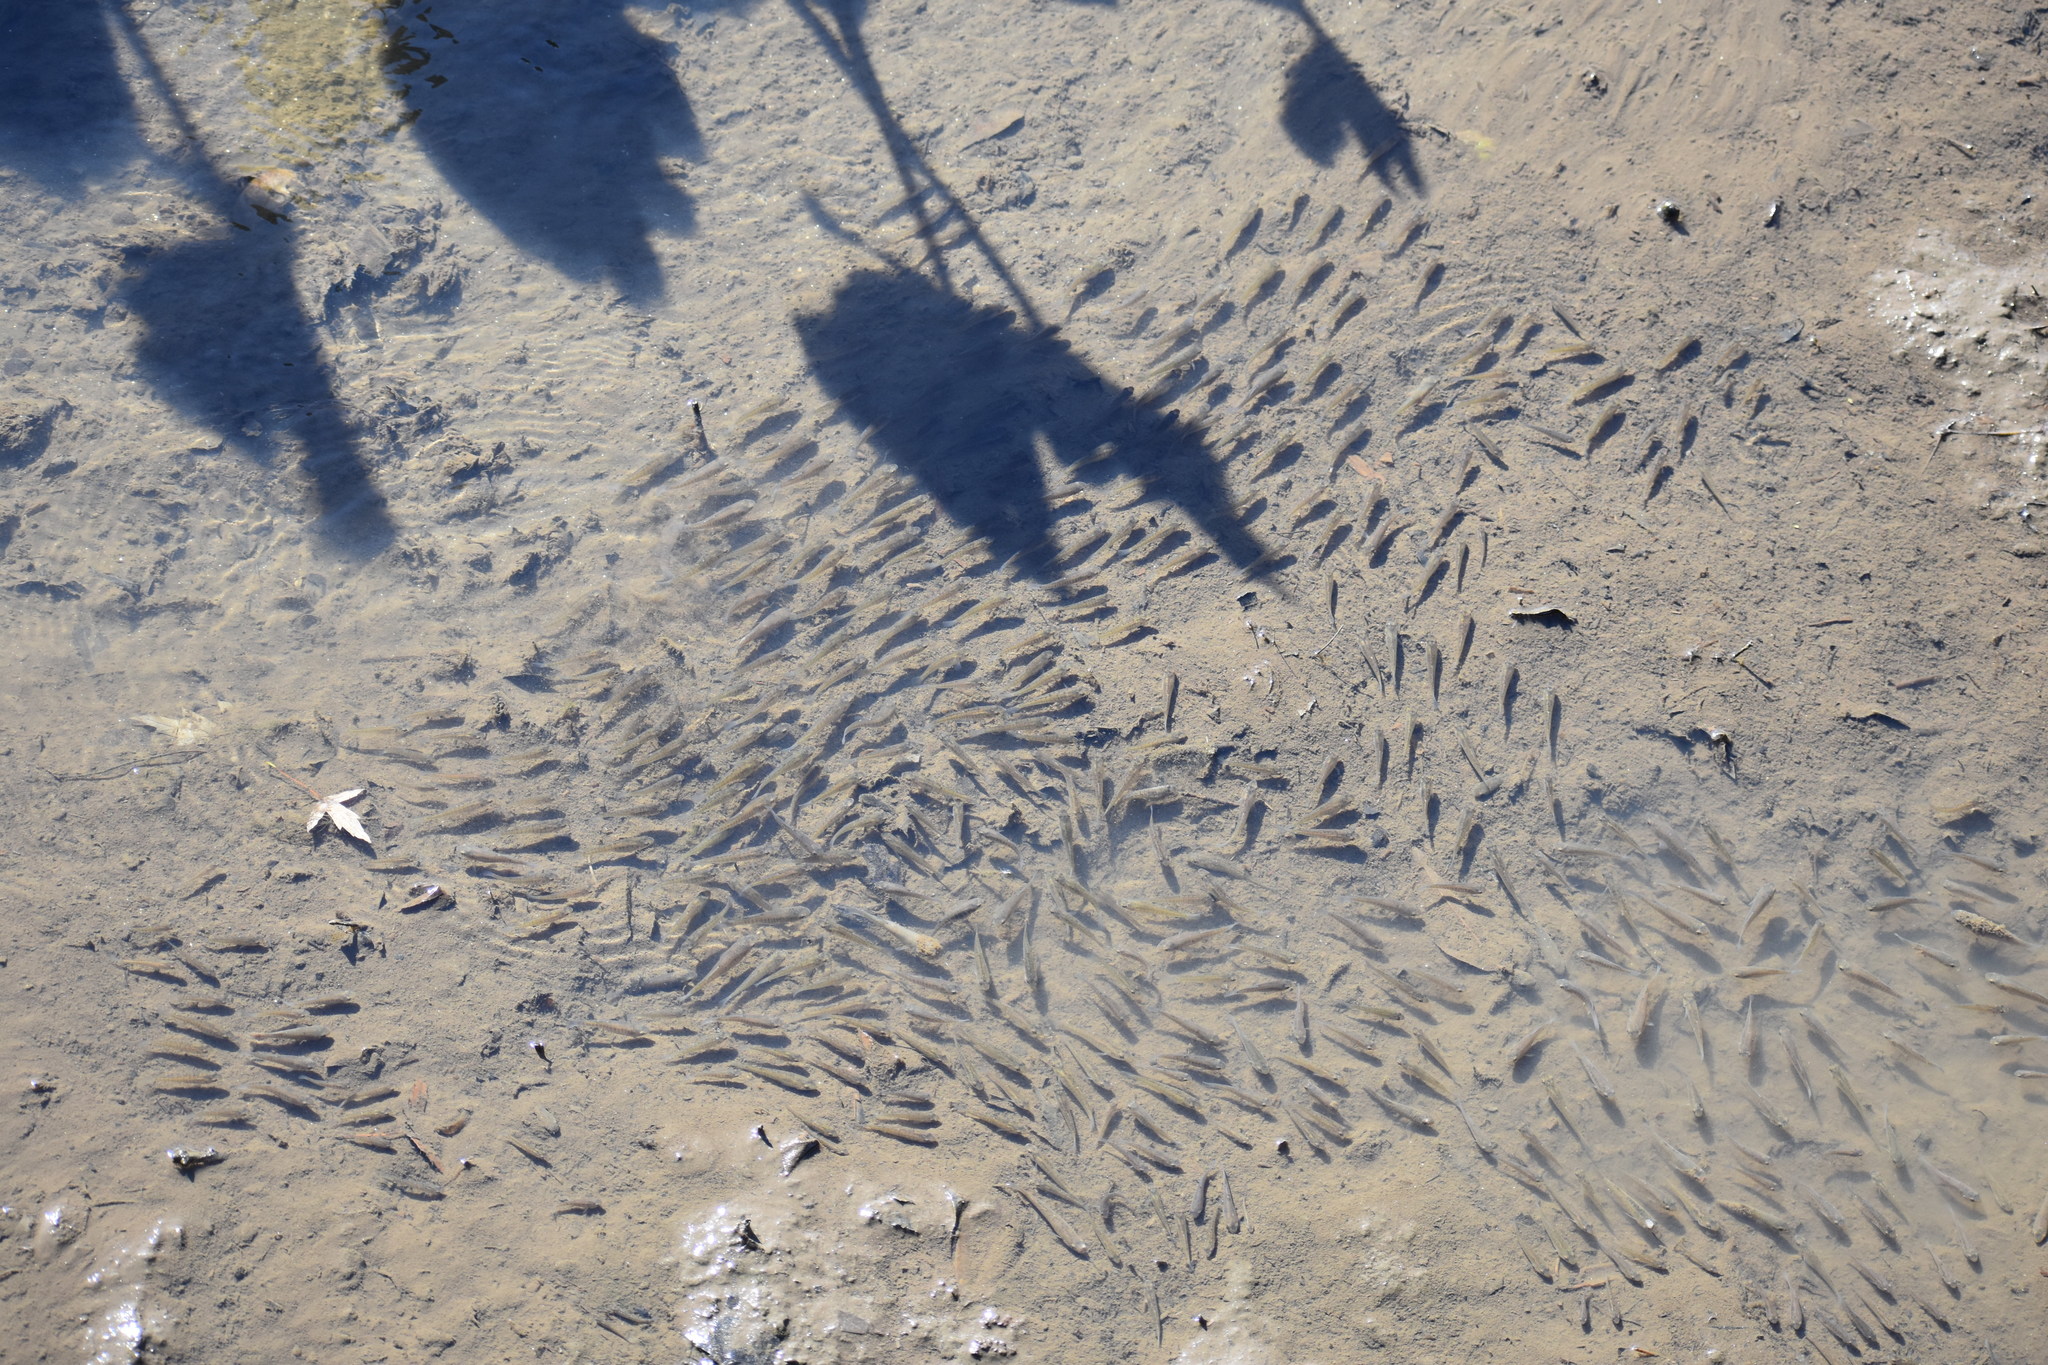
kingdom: Animalia
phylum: Chordata
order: Cyprinodontiformes
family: Fundulidae
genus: Fundulus
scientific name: Fundulus heteroclitus
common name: Mummichog
